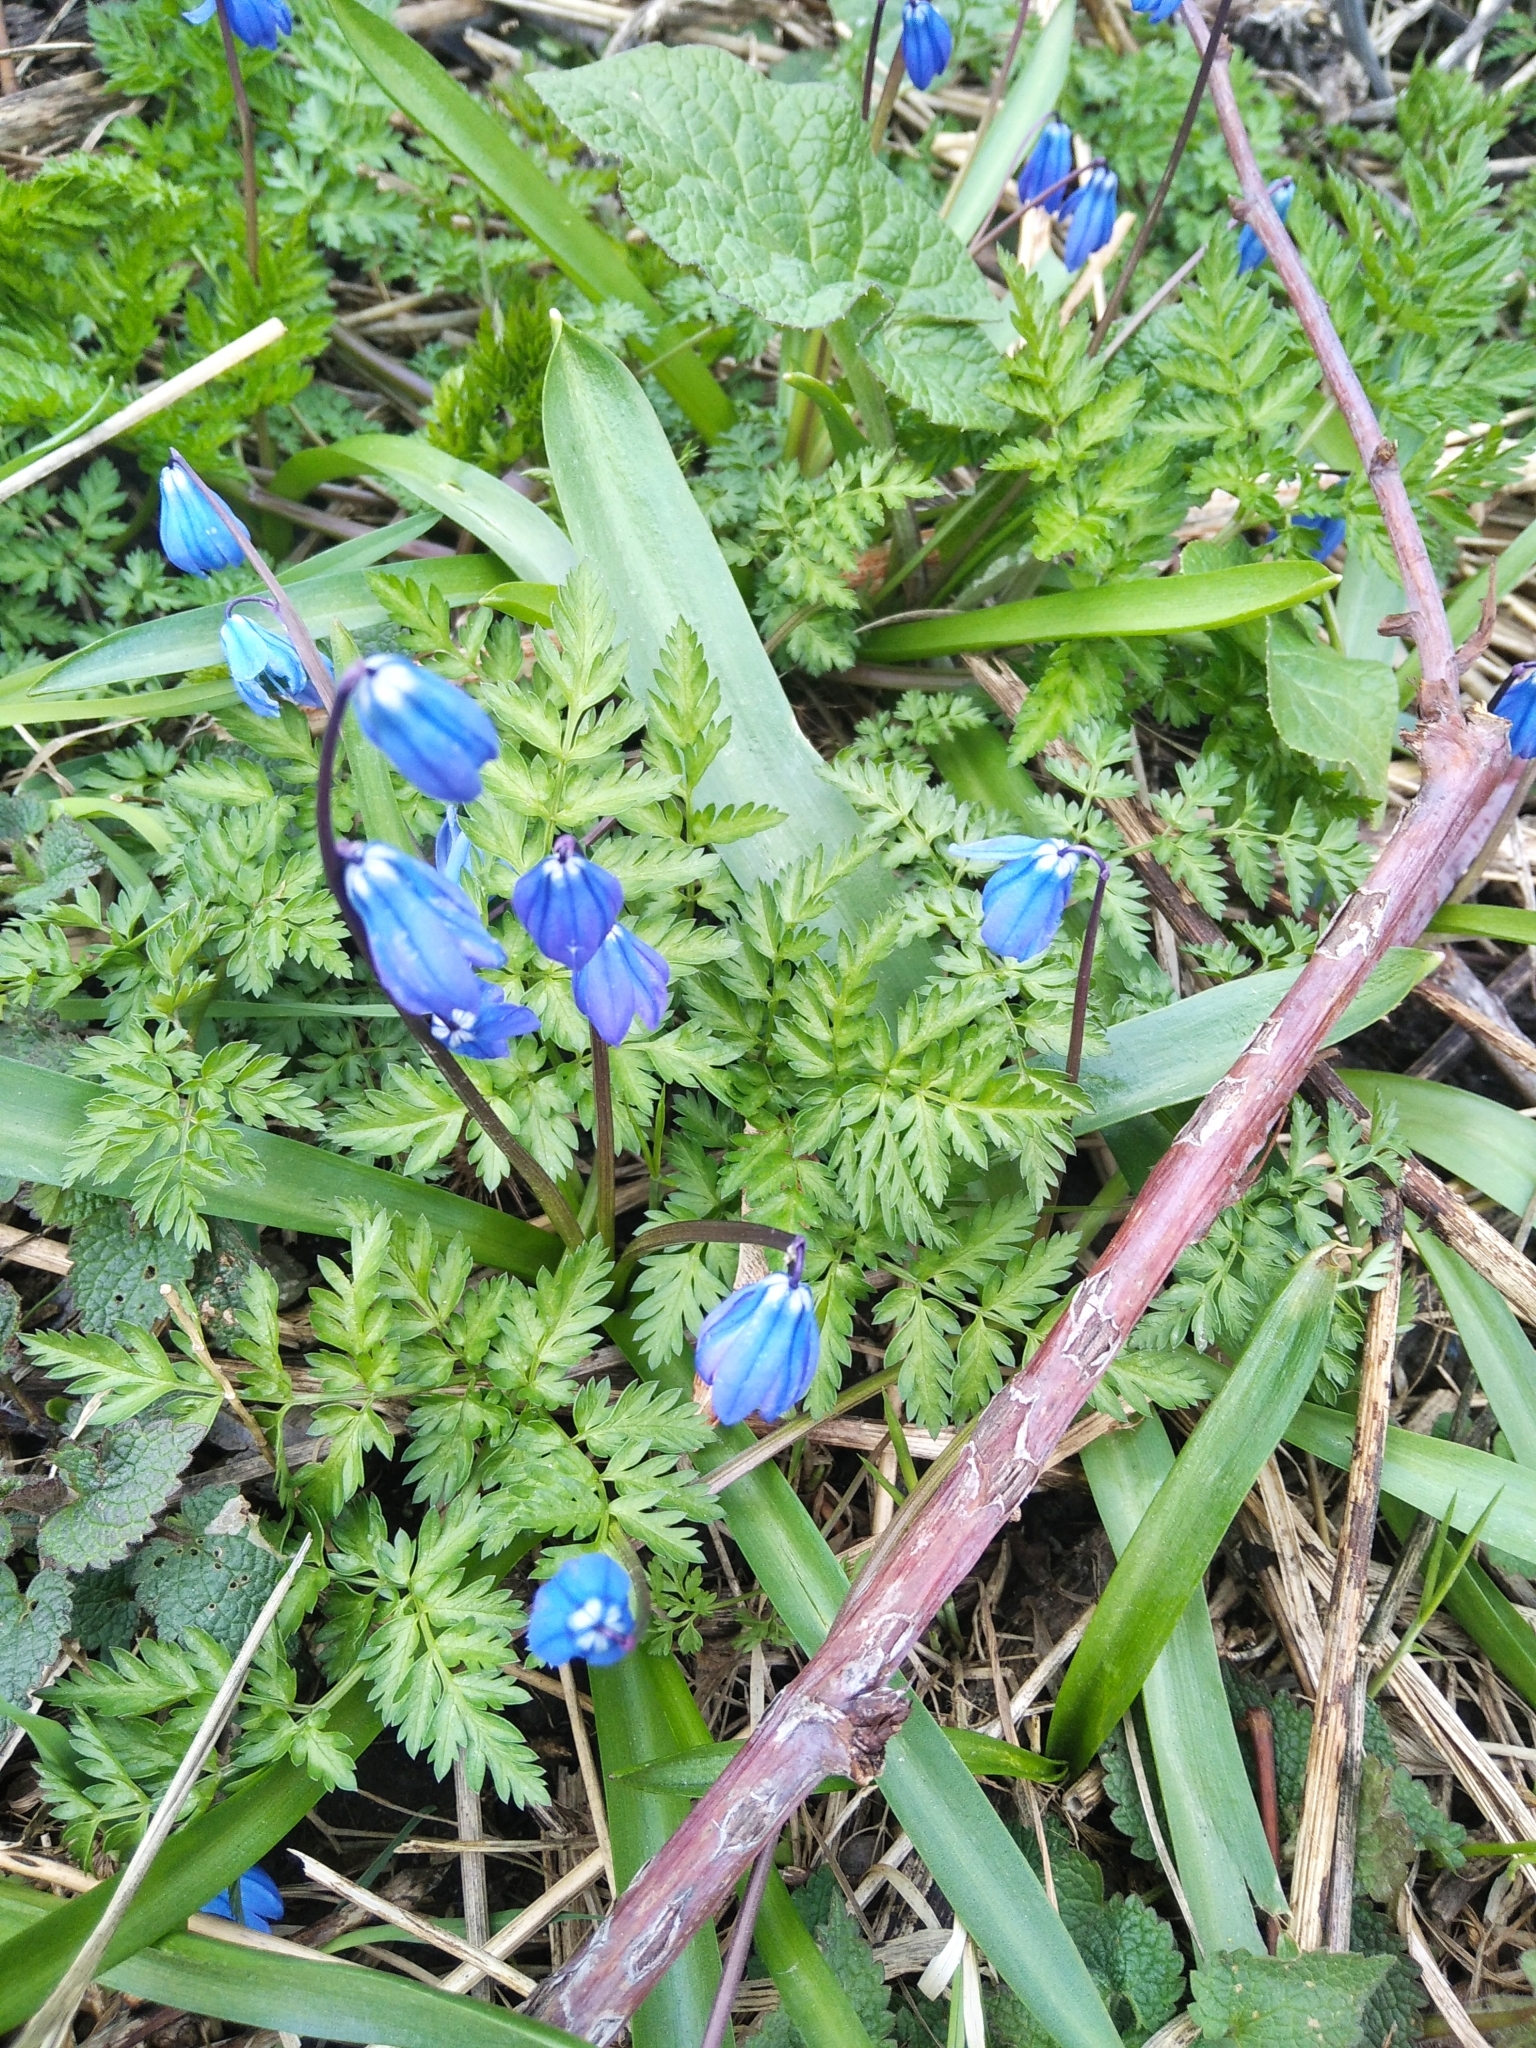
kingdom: Plantae
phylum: Tracheophyta
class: Liliopsida
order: Asparagales
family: Asparagaceae
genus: Scilla
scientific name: Scilla siberica
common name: Siberian squill
